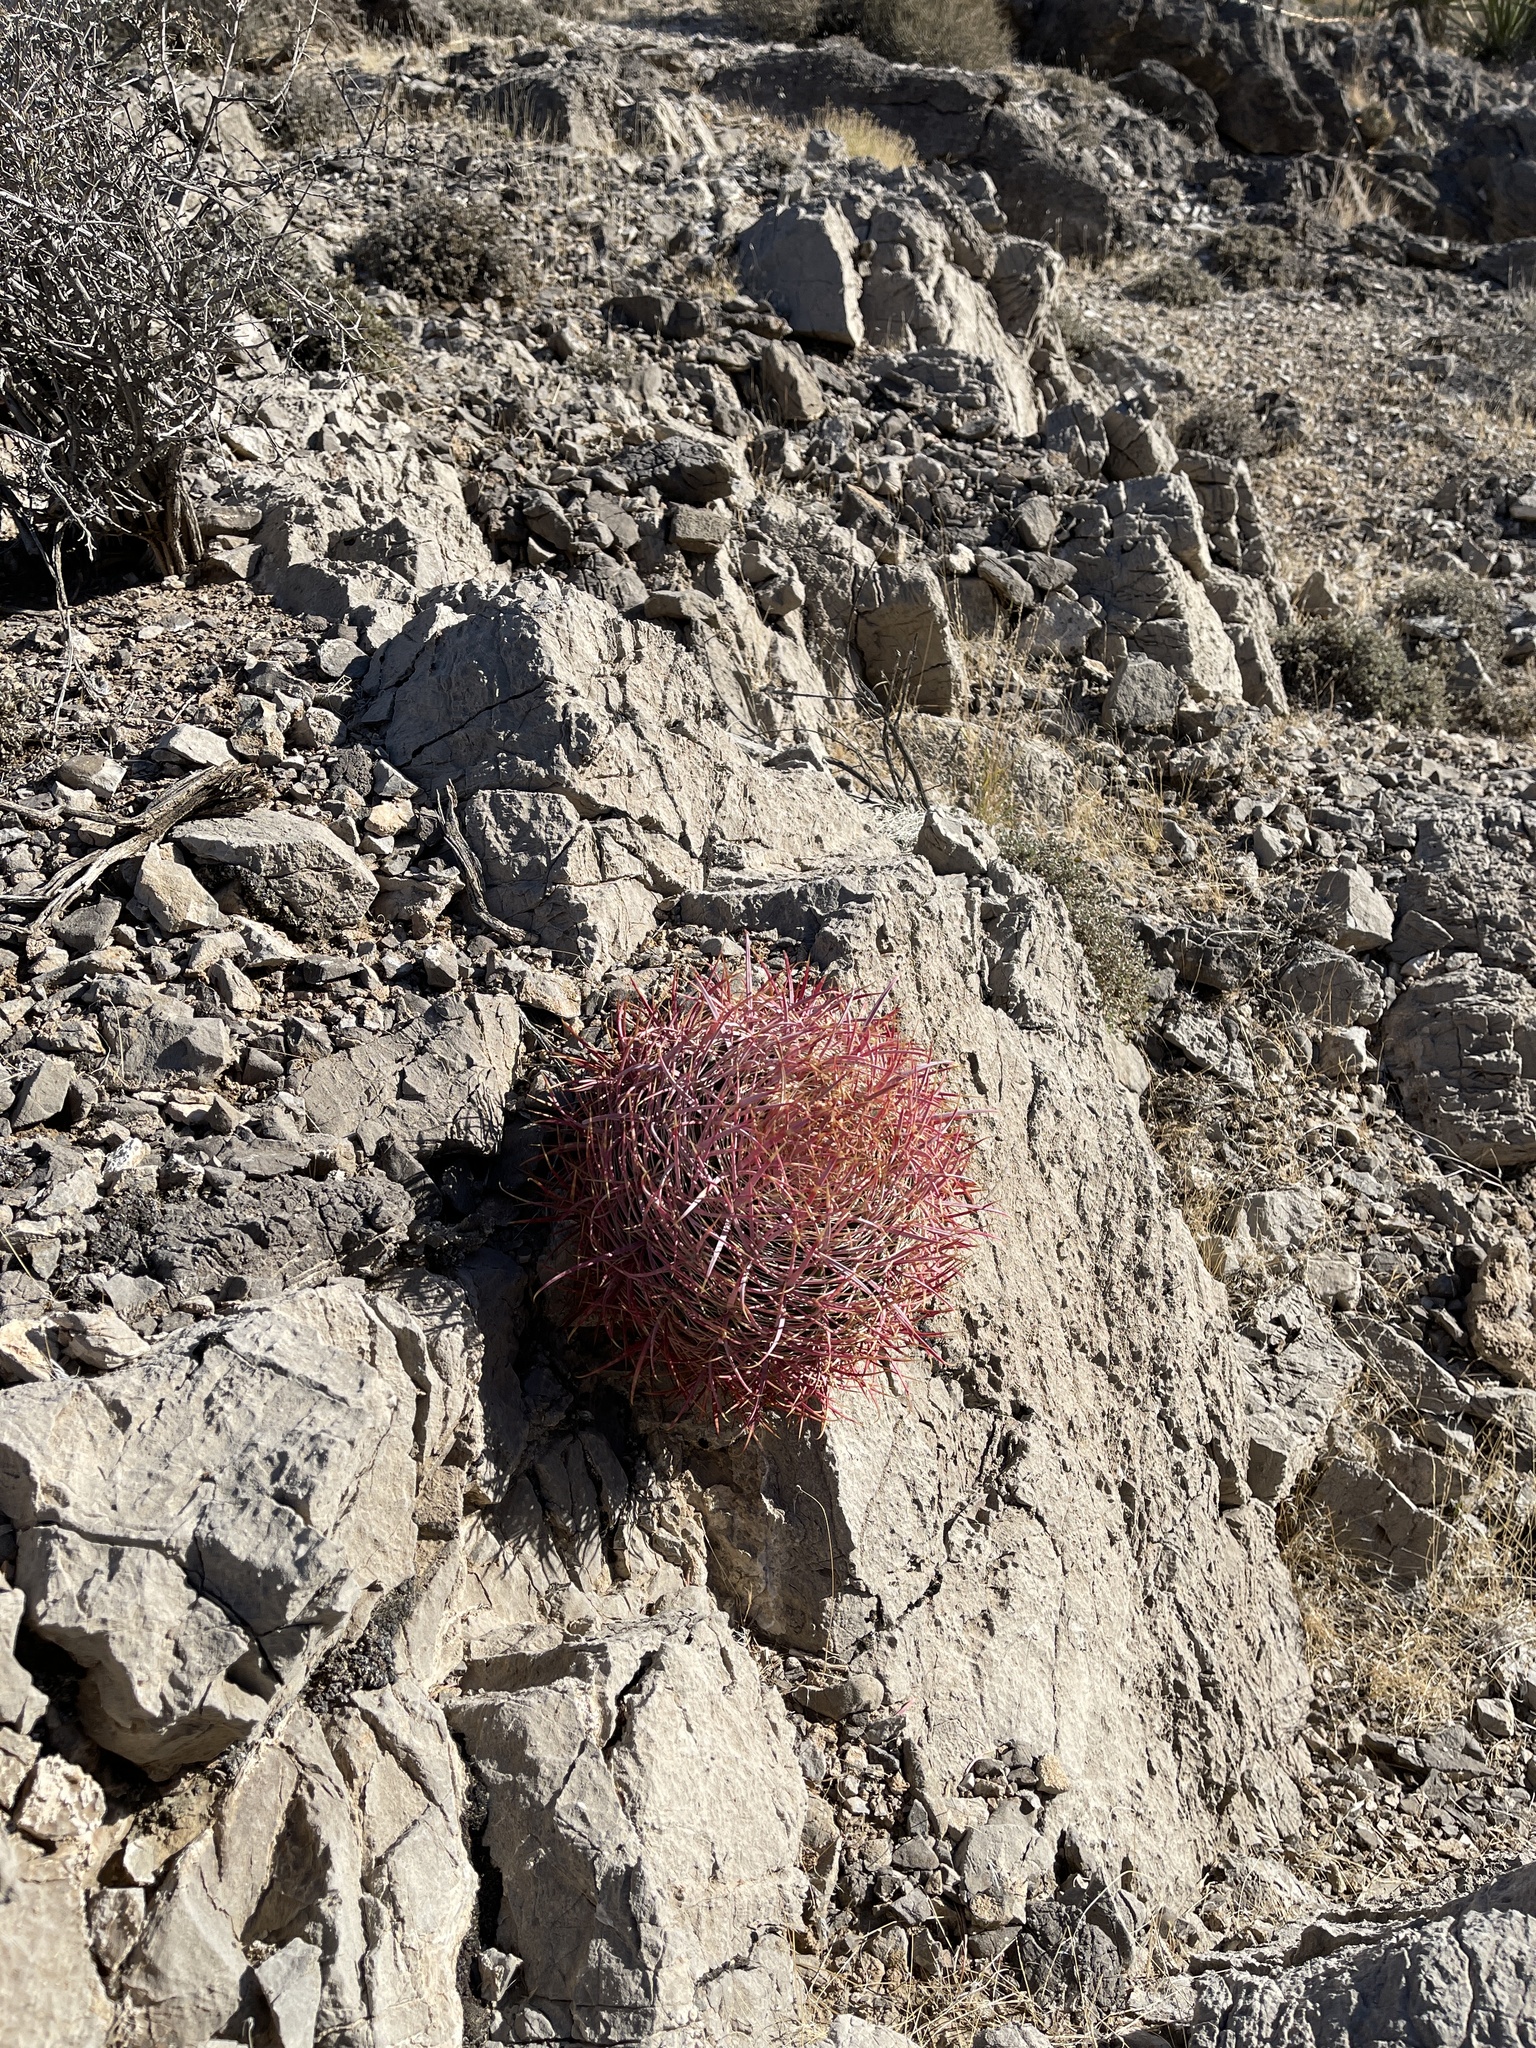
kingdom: Plantae
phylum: Tracheophyta
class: Magnoliopsida
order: Caryophyllales
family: Cactaceae
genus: Ferocactus
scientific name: Ferocactus cylindraceus
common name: California barrel cactus
